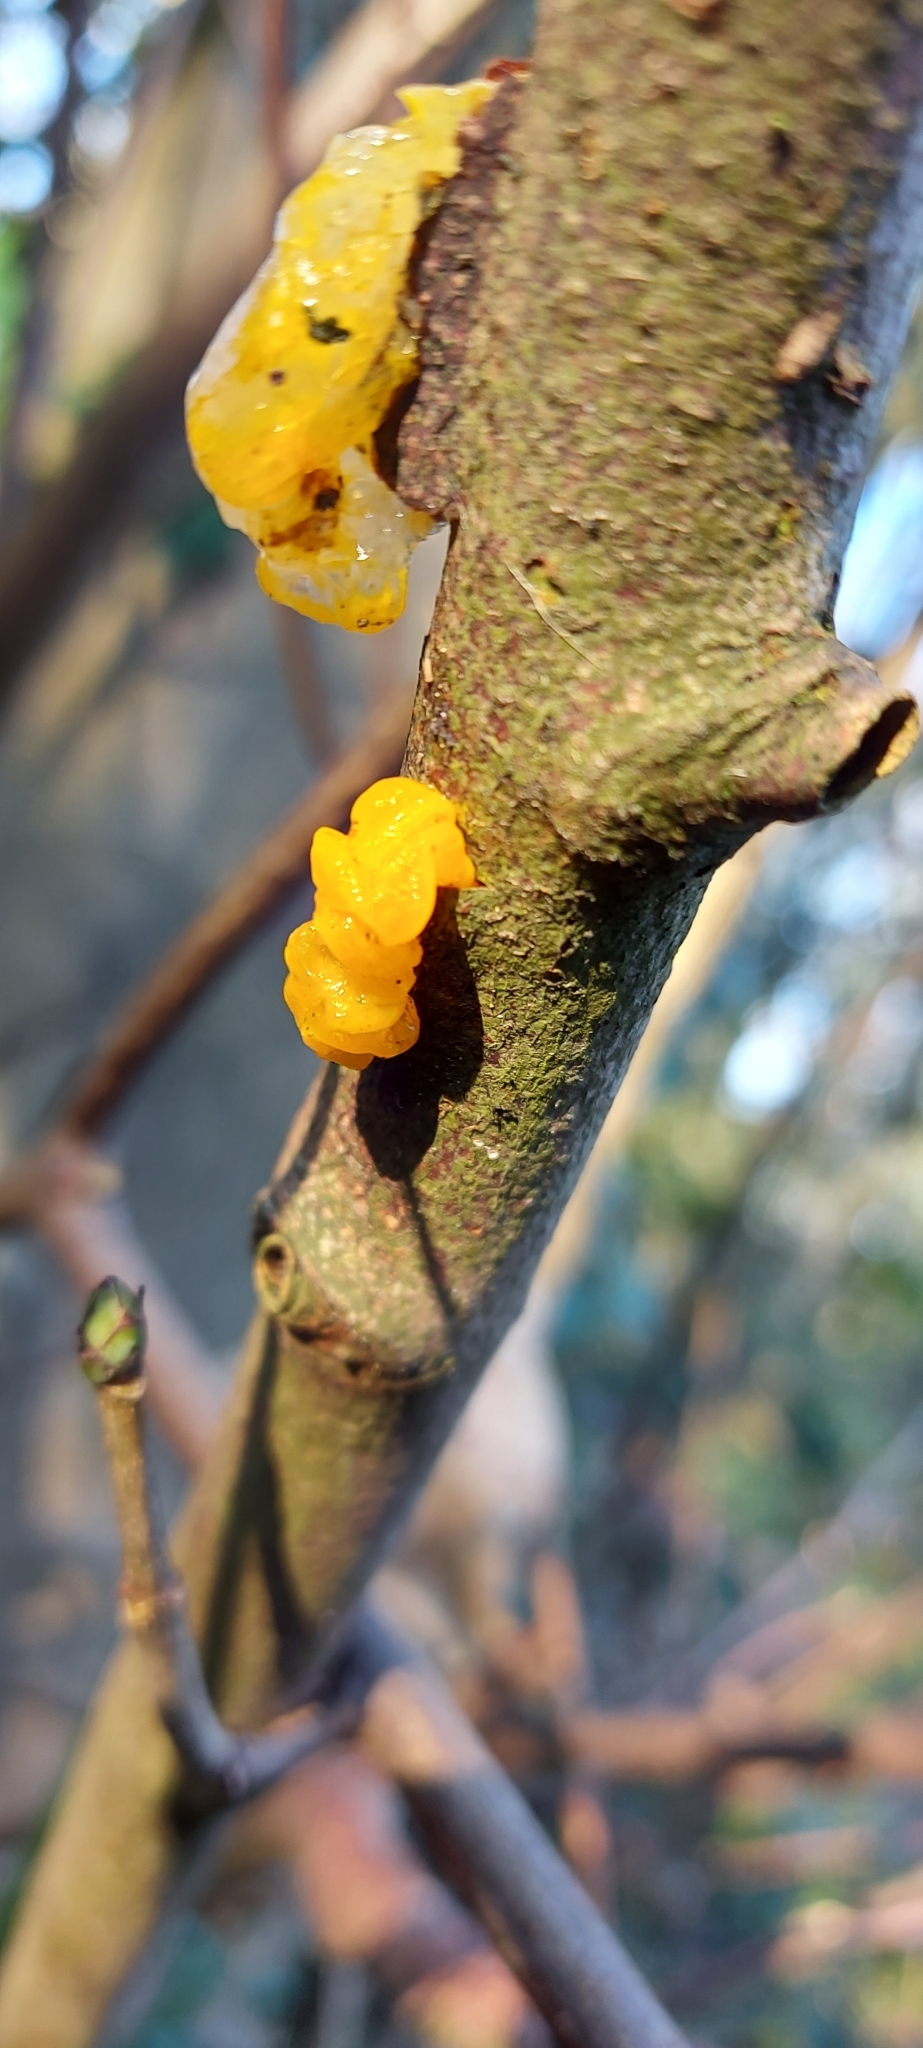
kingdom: Fungi
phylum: Basidiomycota
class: Tremellomycetes
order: Tremellales
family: Tremellaceae
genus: Tremella
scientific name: Tremella mesenterica
